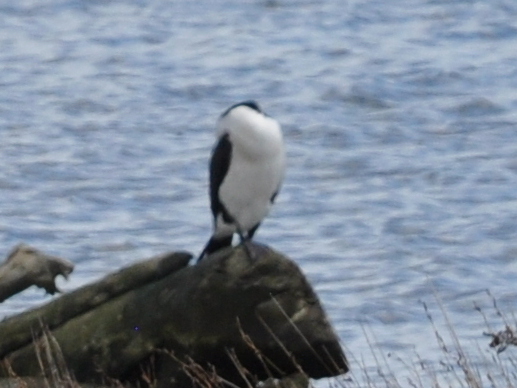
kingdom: Animalia
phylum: Chordata
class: Aves
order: Suliformes
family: Phalacrocoracidae
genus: Phalacrocorax
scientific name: Phalacrocorax varius
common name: Pied cormorant
